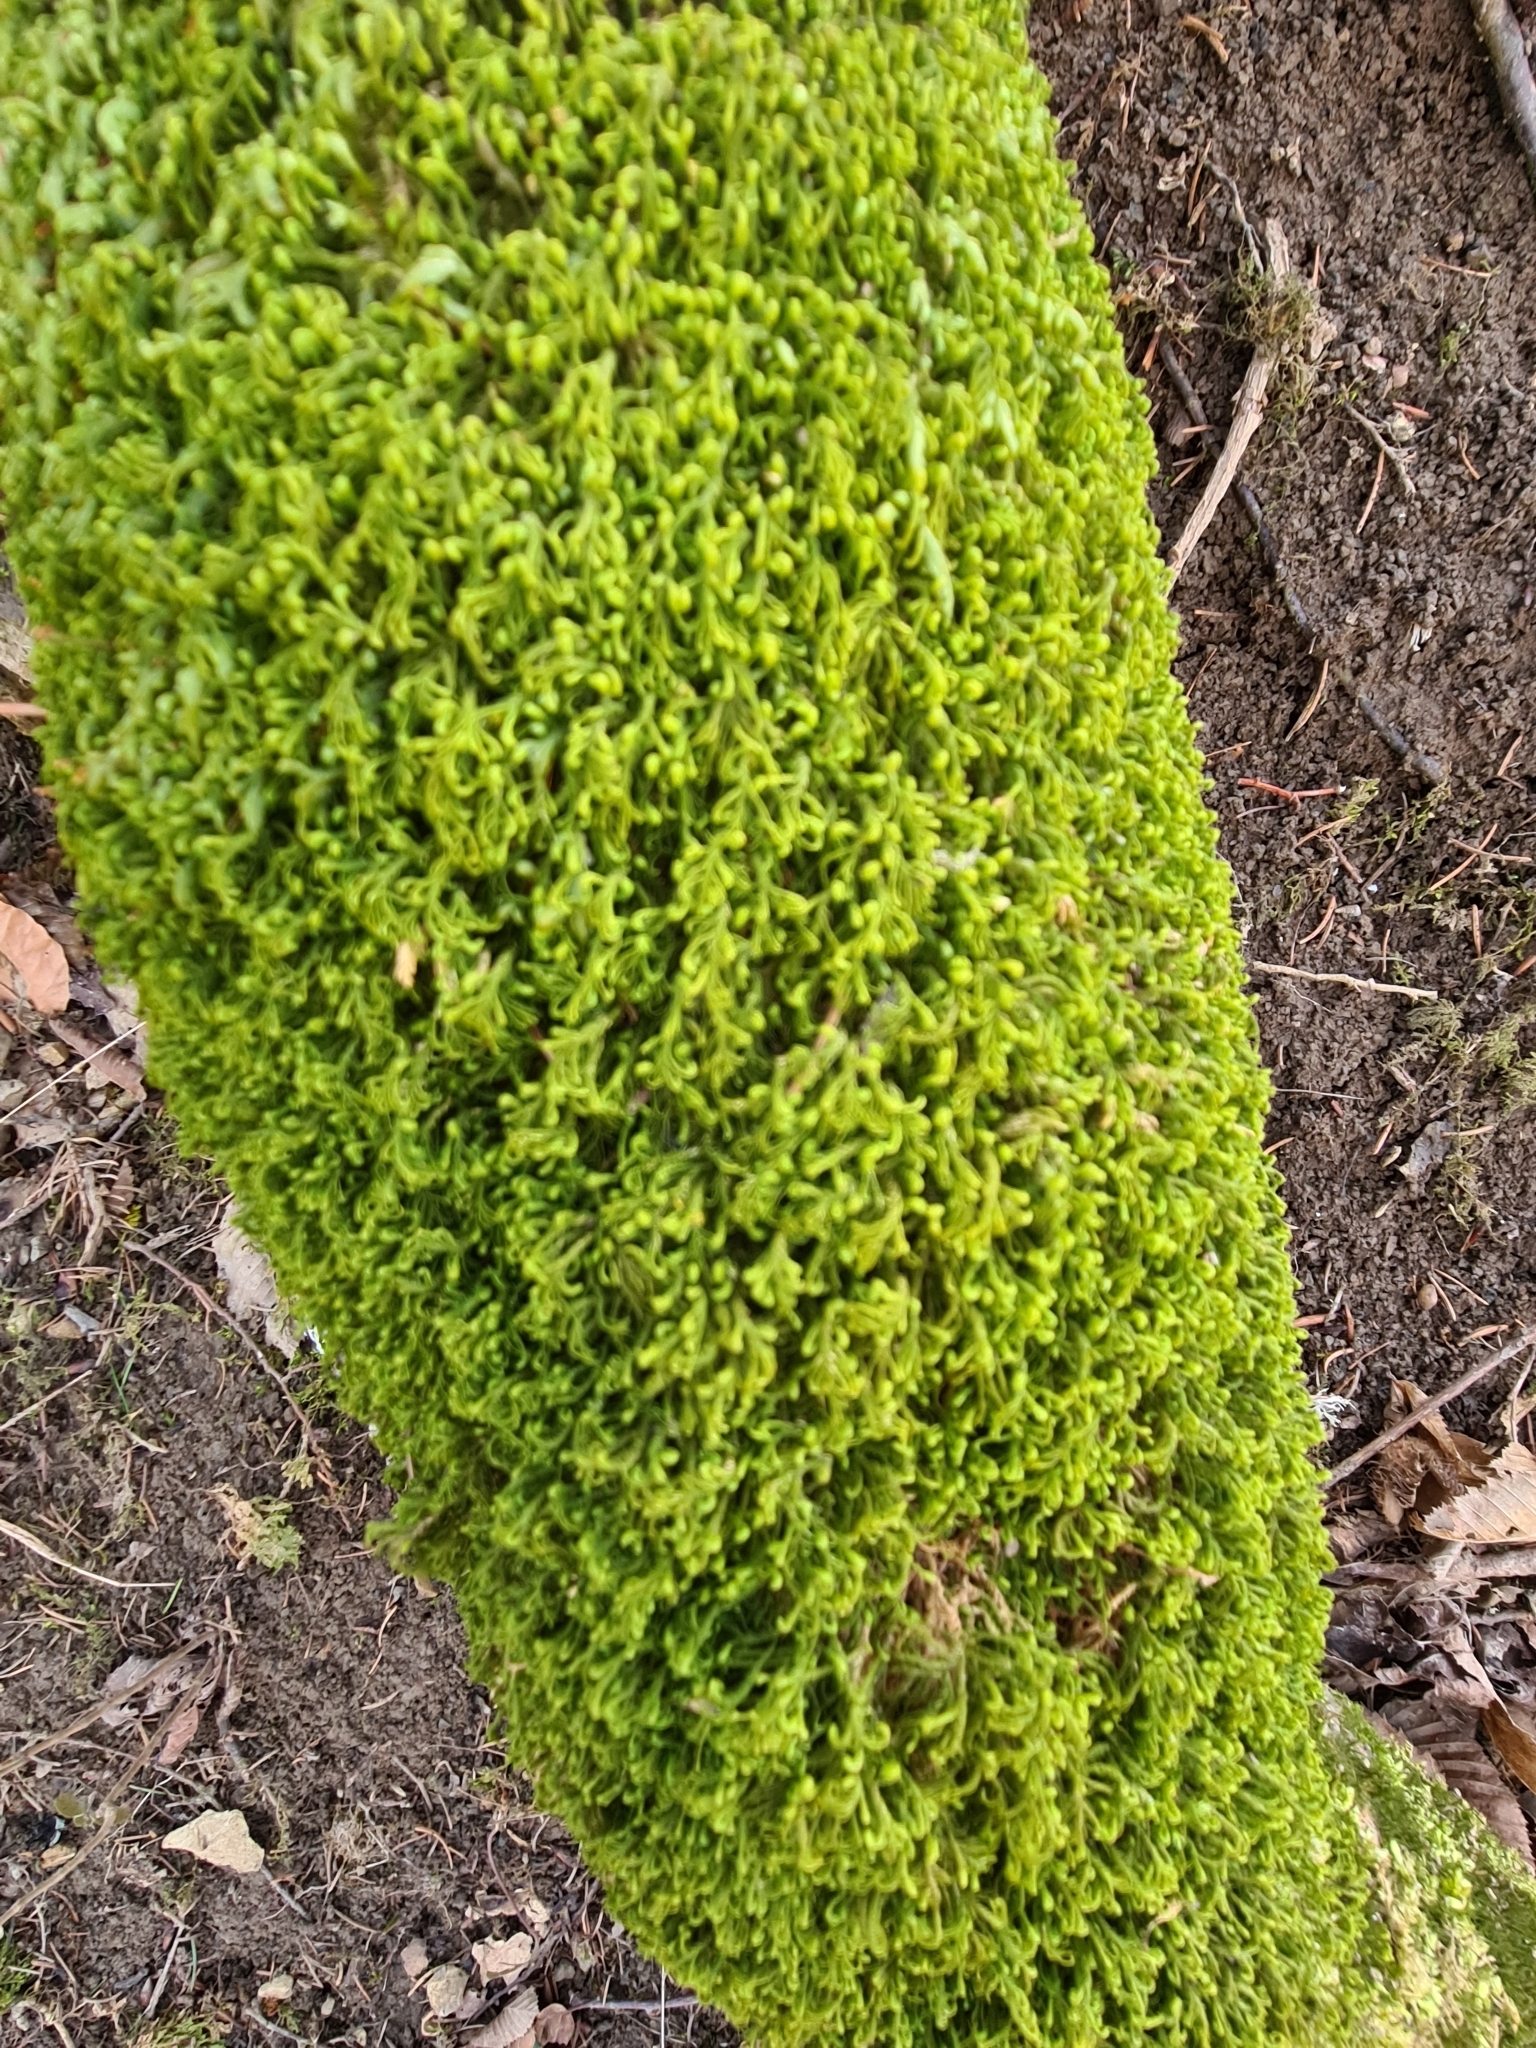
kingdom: Plantae
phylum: Bryophyta
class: Bryopsida
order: Hypnales
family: Neckeraceae
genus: Pseudanomodon
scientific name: Pseudanomodon attenuatus
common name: Tree-skirt moss
